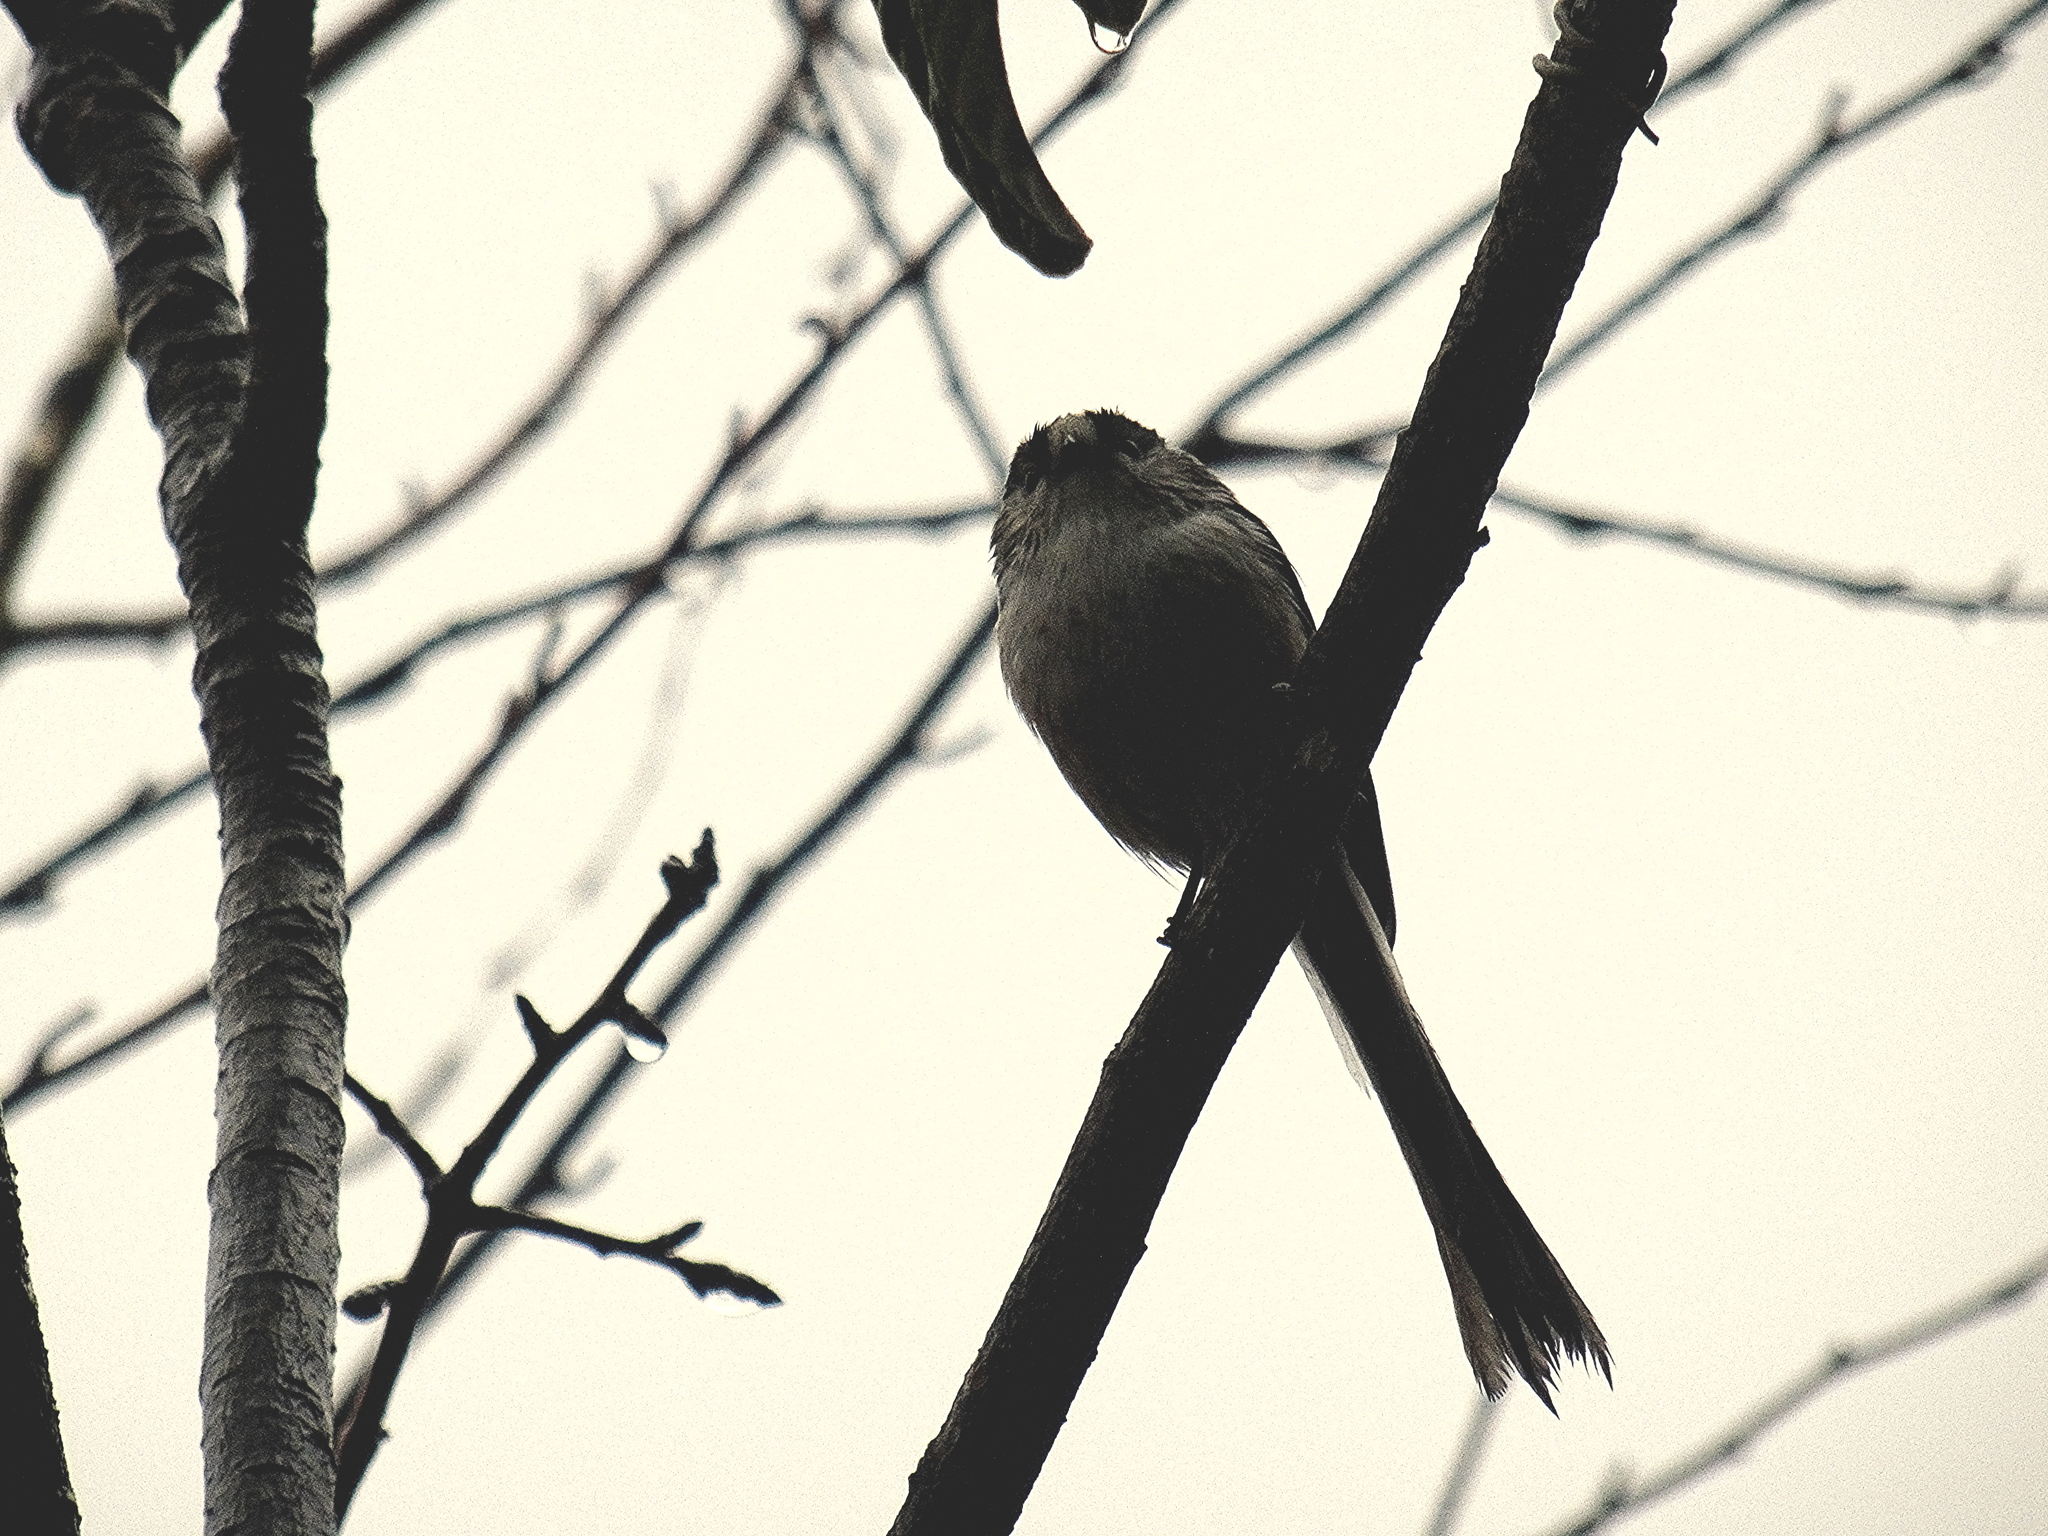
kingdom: Animalia
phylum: Chordata
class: Aves
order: Passeriformes
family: Aegithalidae
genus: Aegithalos
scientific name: Aegithalos caudatus
